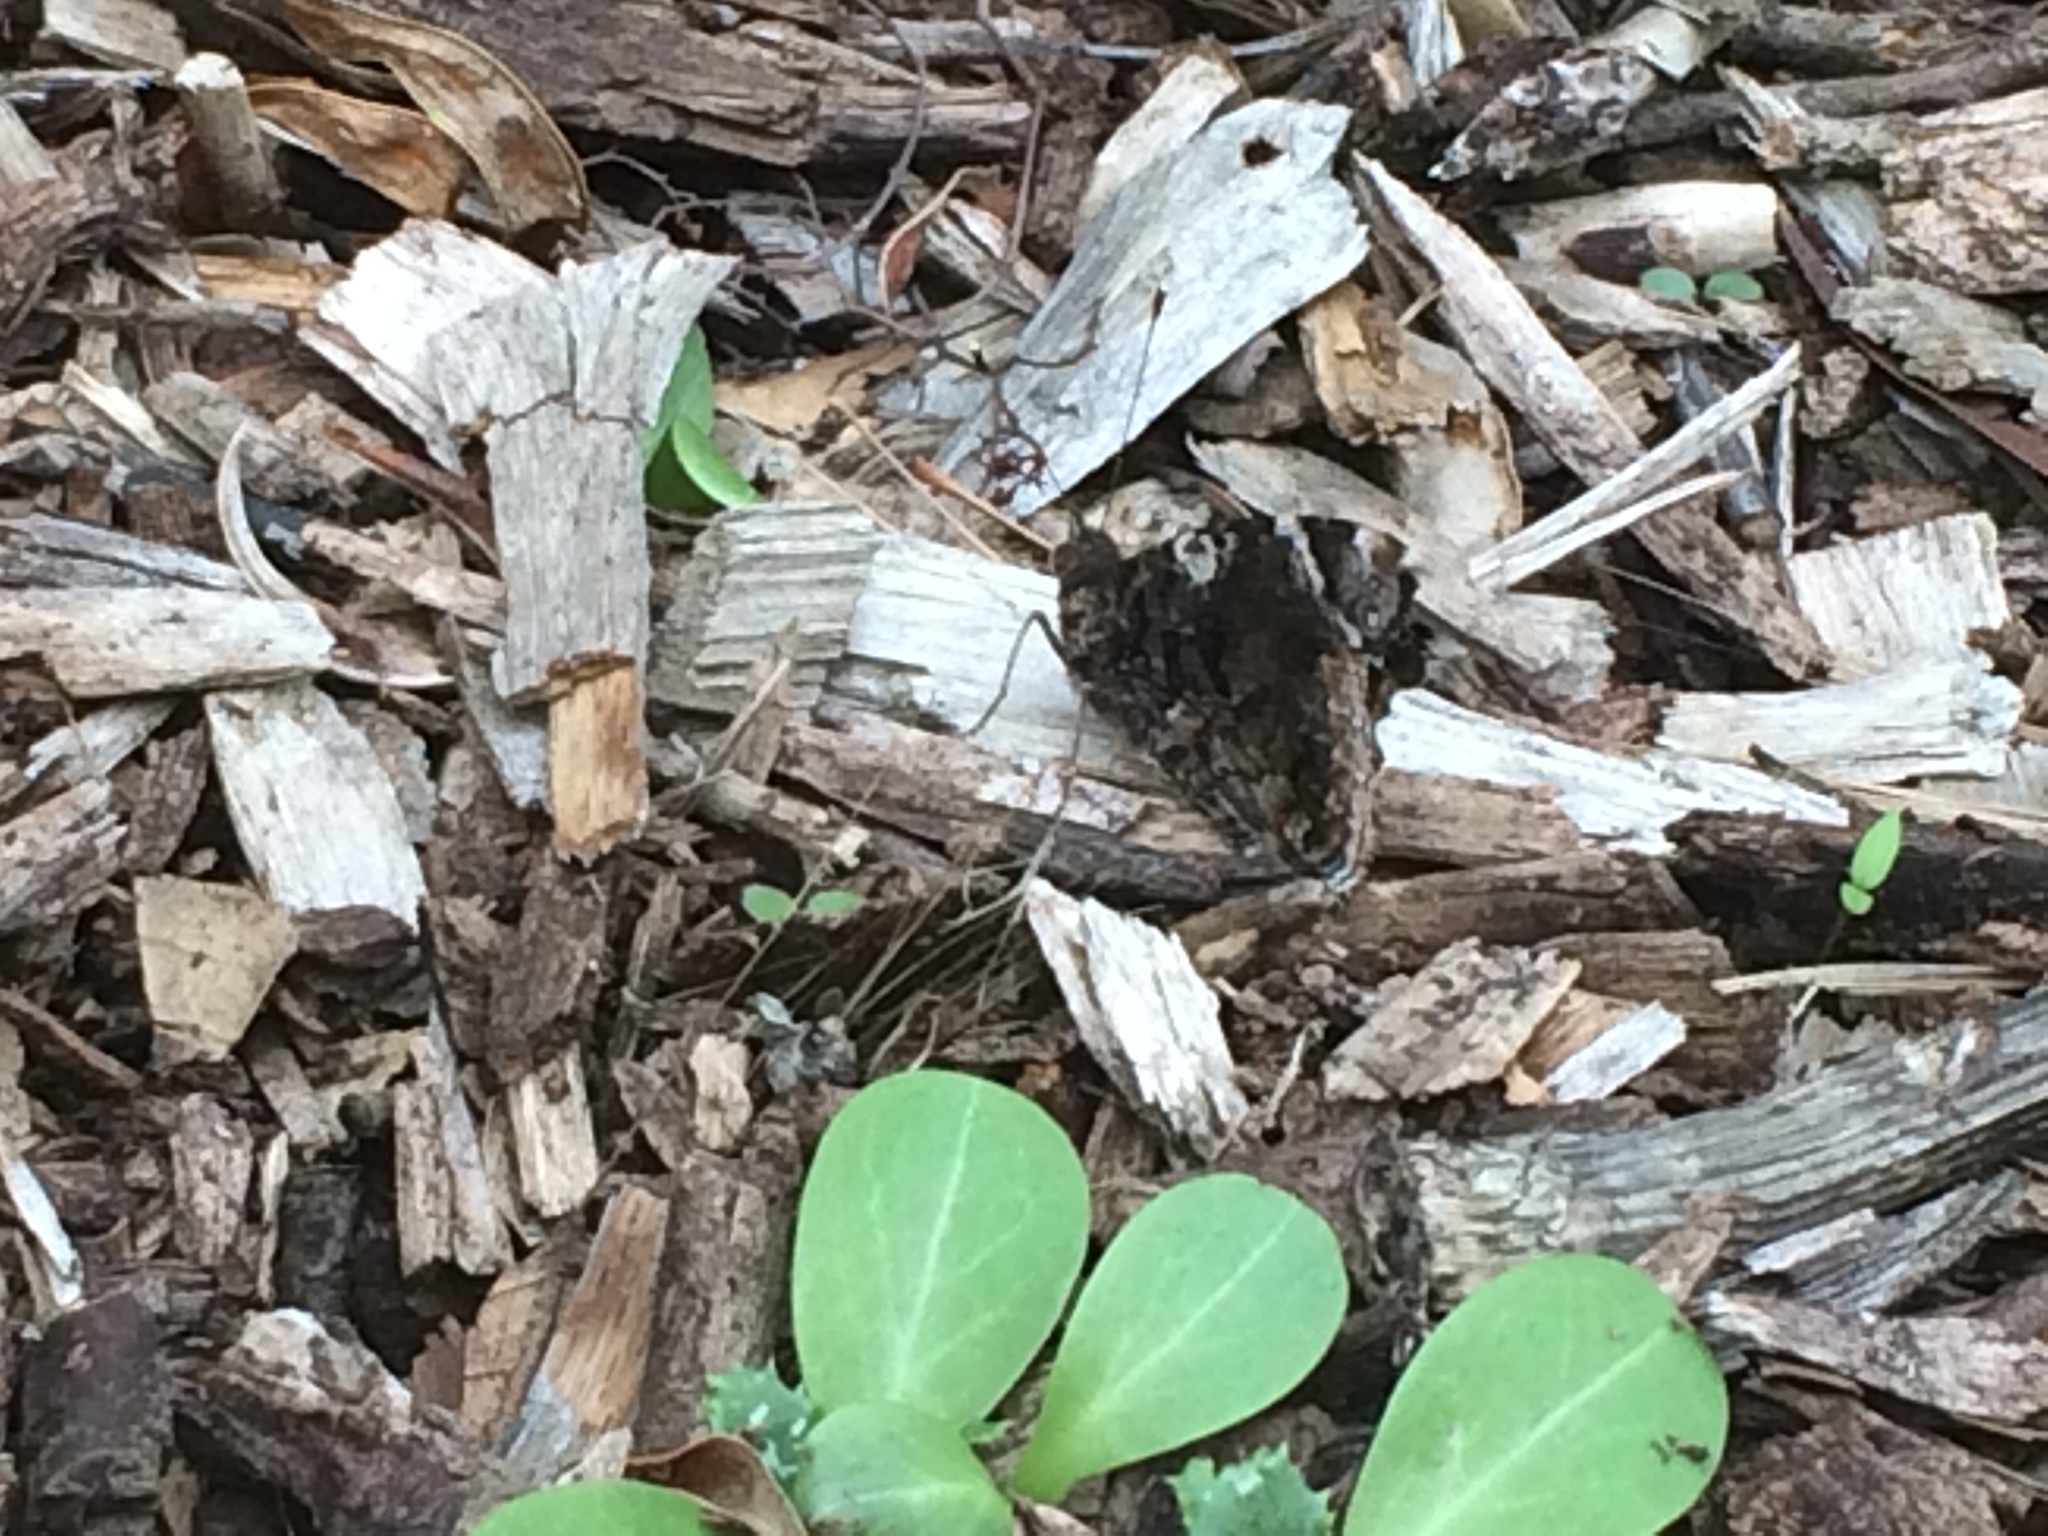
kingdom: Animalia
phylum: Arthropoda
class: Insecta
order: Lepidoptera
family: Nymphalidae
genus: Vanessa
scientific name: Vanessa atalanta
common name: Red admiral
